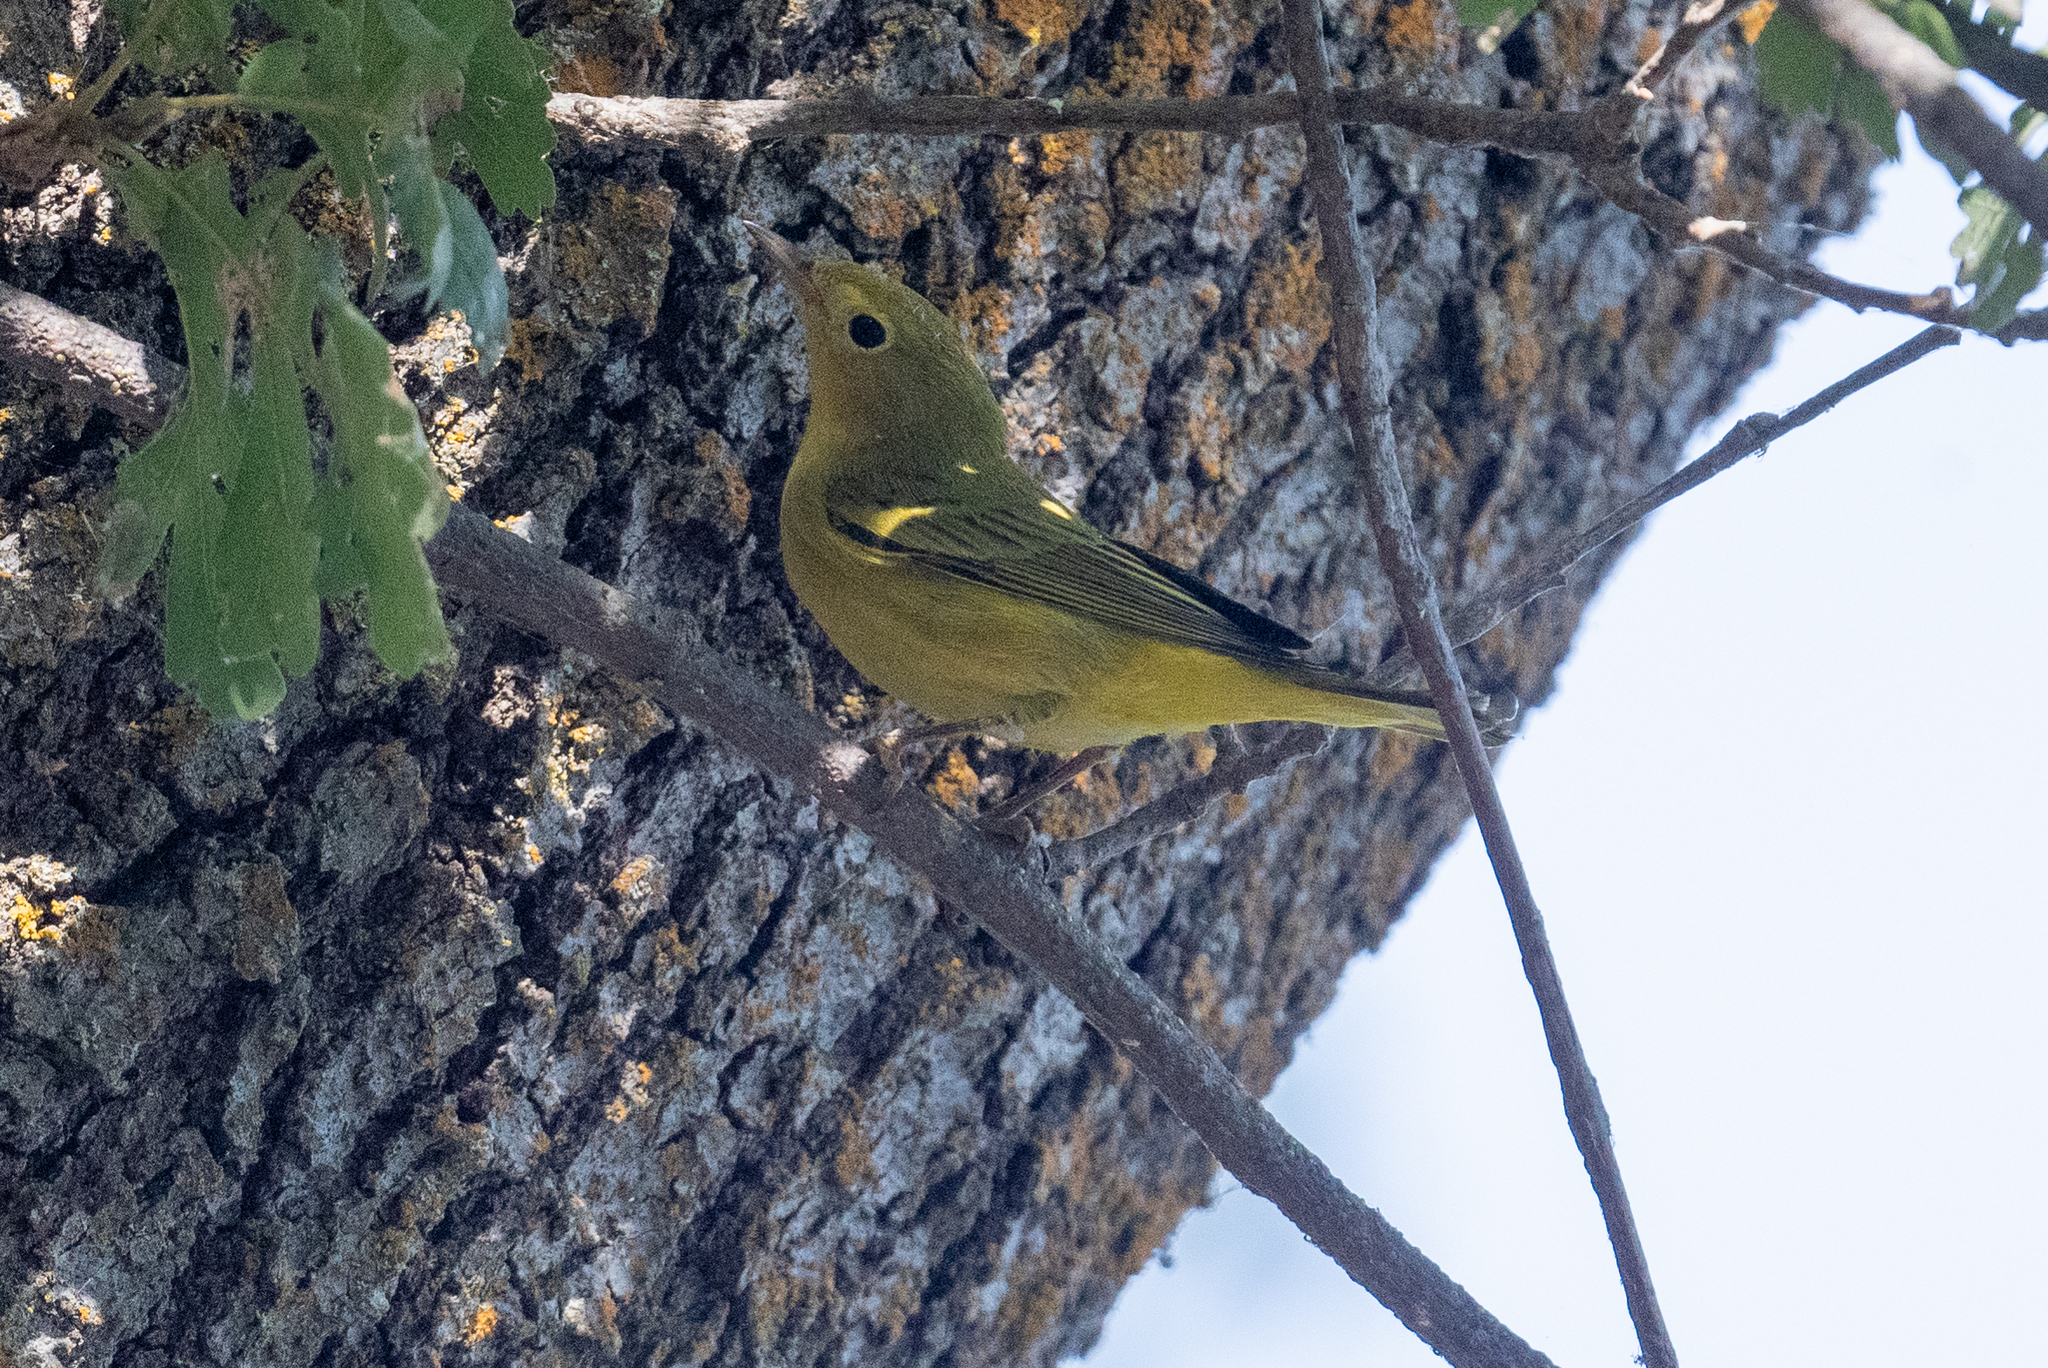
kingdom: Animalia
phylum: Chordata
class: Aves
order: Passeriformes
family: Parulidae
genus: Setophaga
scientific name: Setophaga petechia
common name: Yellow warbler
